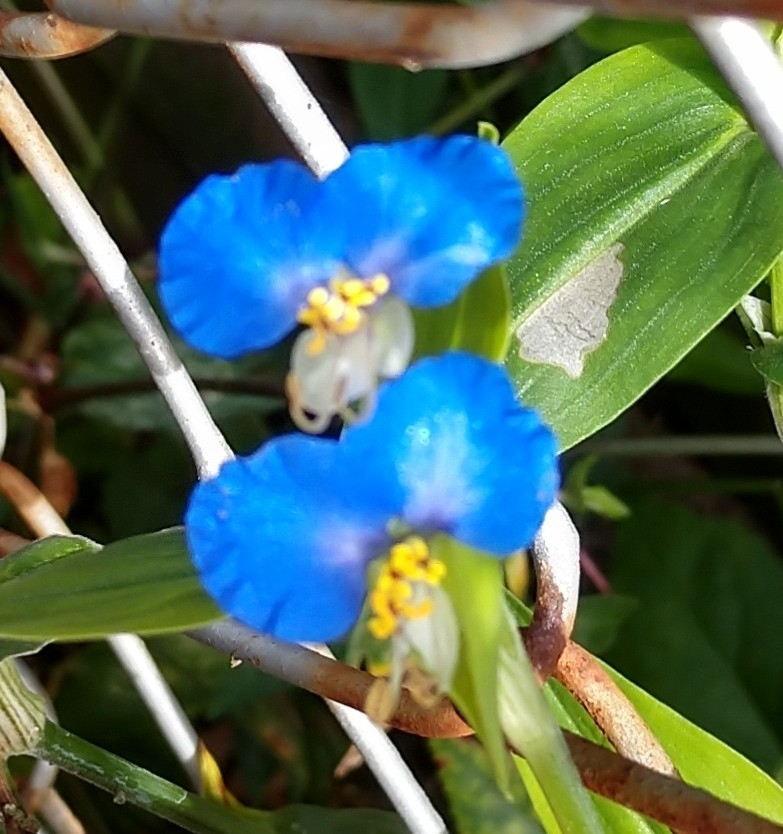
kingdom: Plantae
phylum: Tracheophyta
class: Liliopsida
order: Commelinales
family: Commelinaceae
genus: Commelina
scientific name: Commelina communis
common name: Asiatic dayflower
